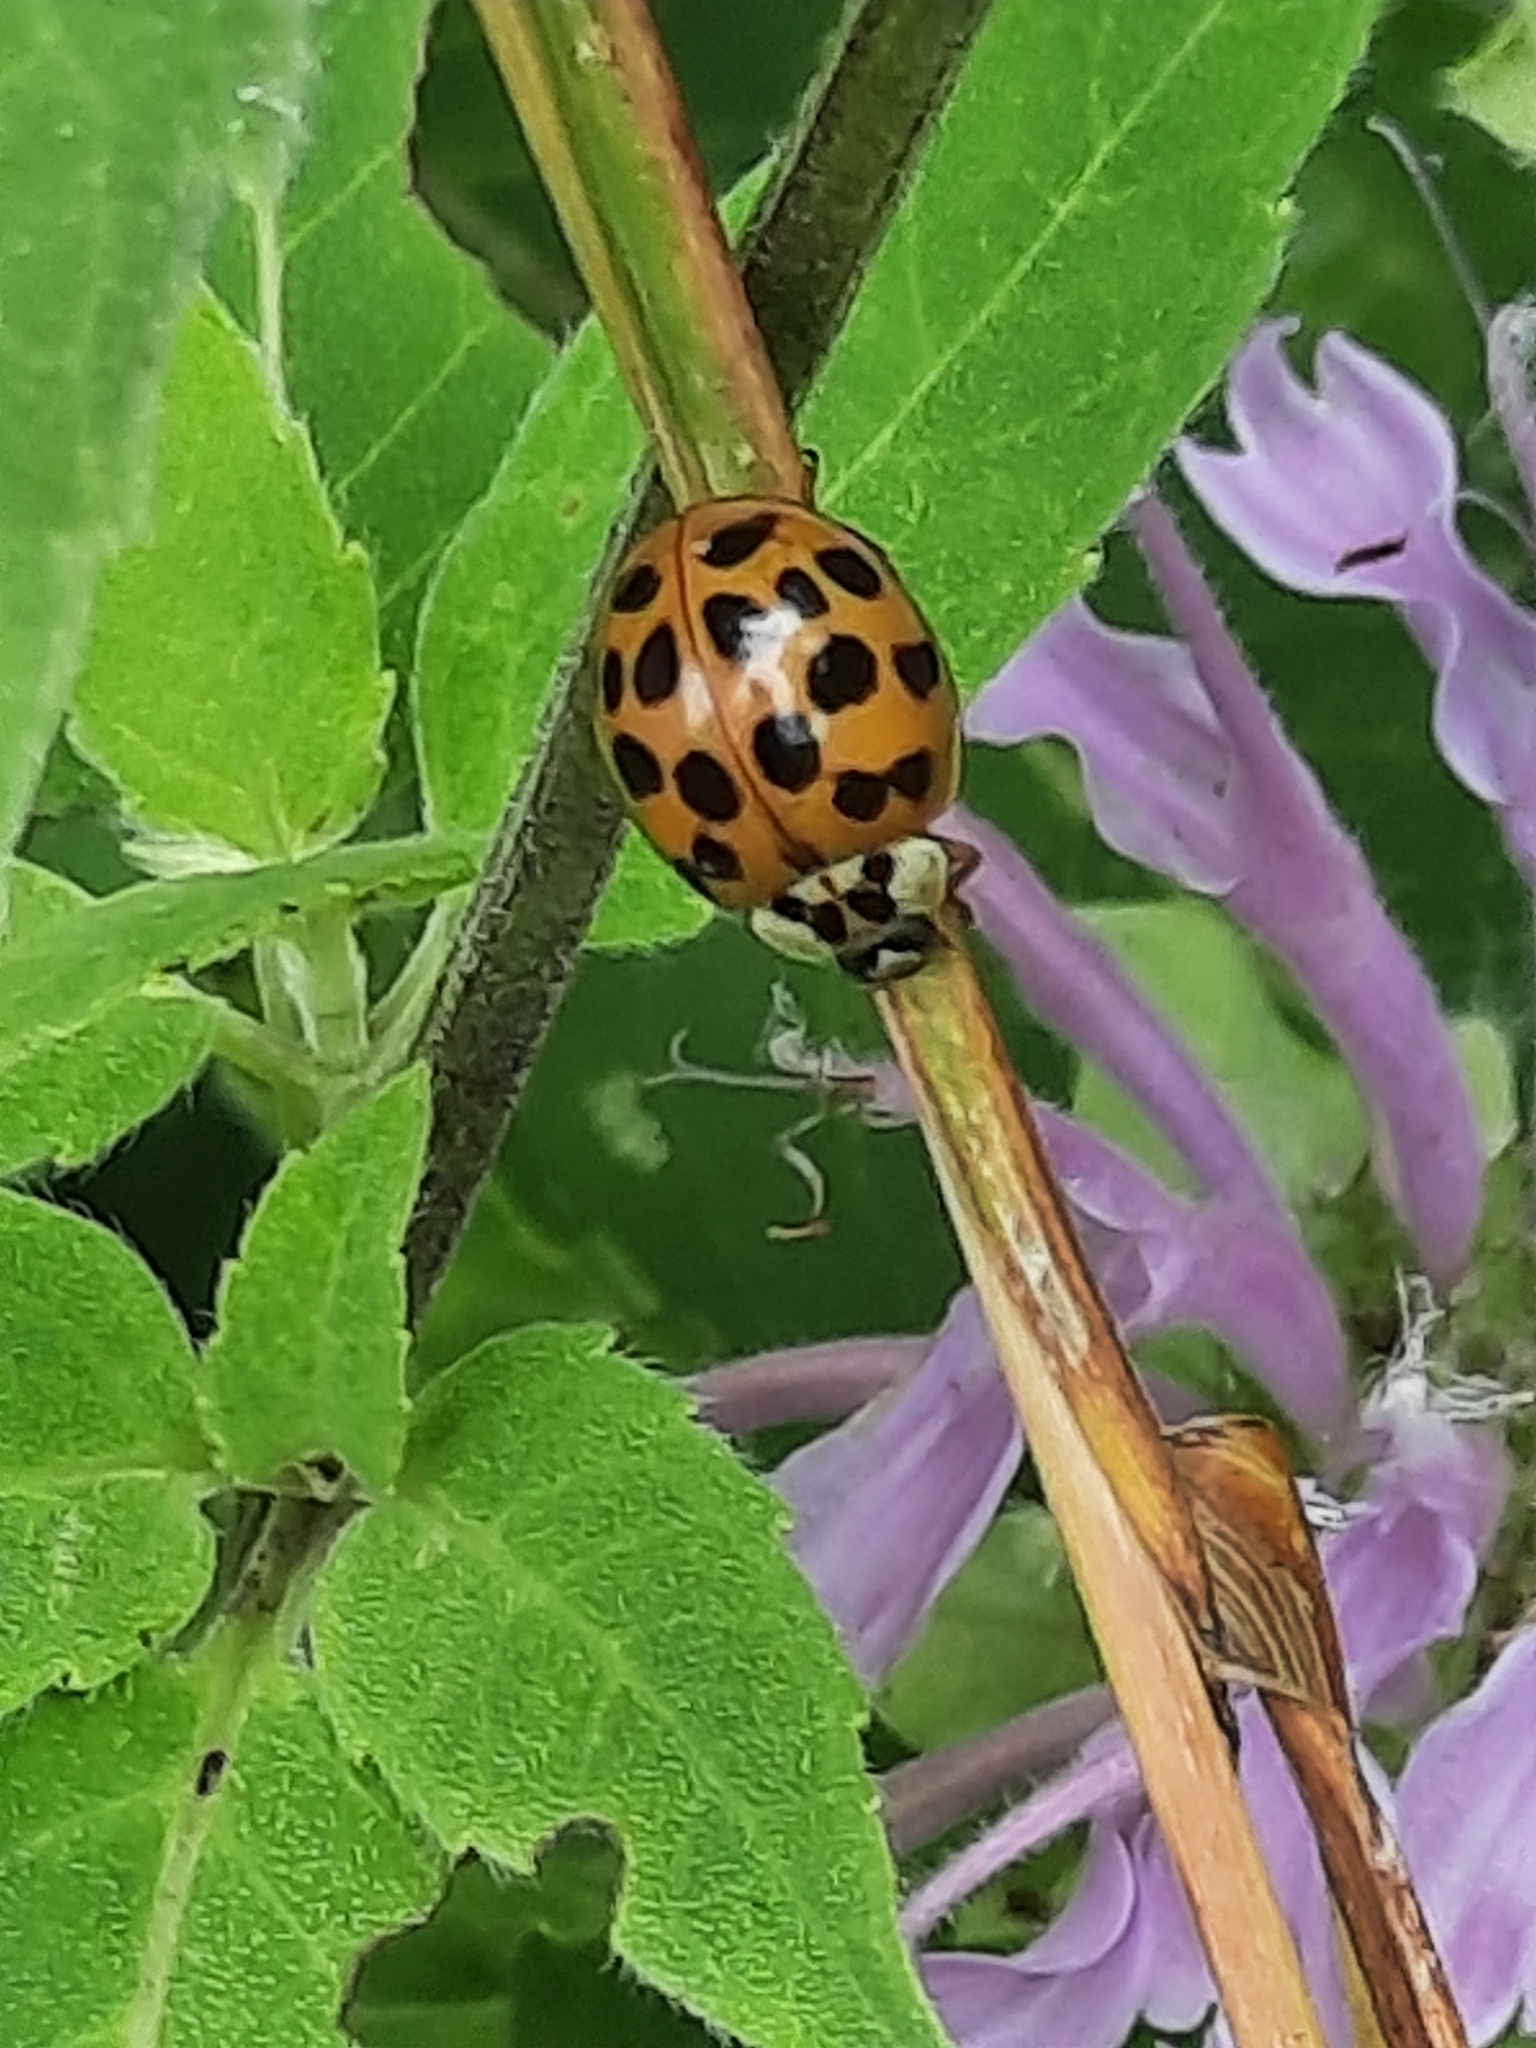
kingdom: Animalia
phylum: Arthropoda
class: Insecta
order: Coleoptera
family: Coccinellidae
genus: Harmonia
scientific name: Harmonia axyridis
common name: Harlequin ladybird
